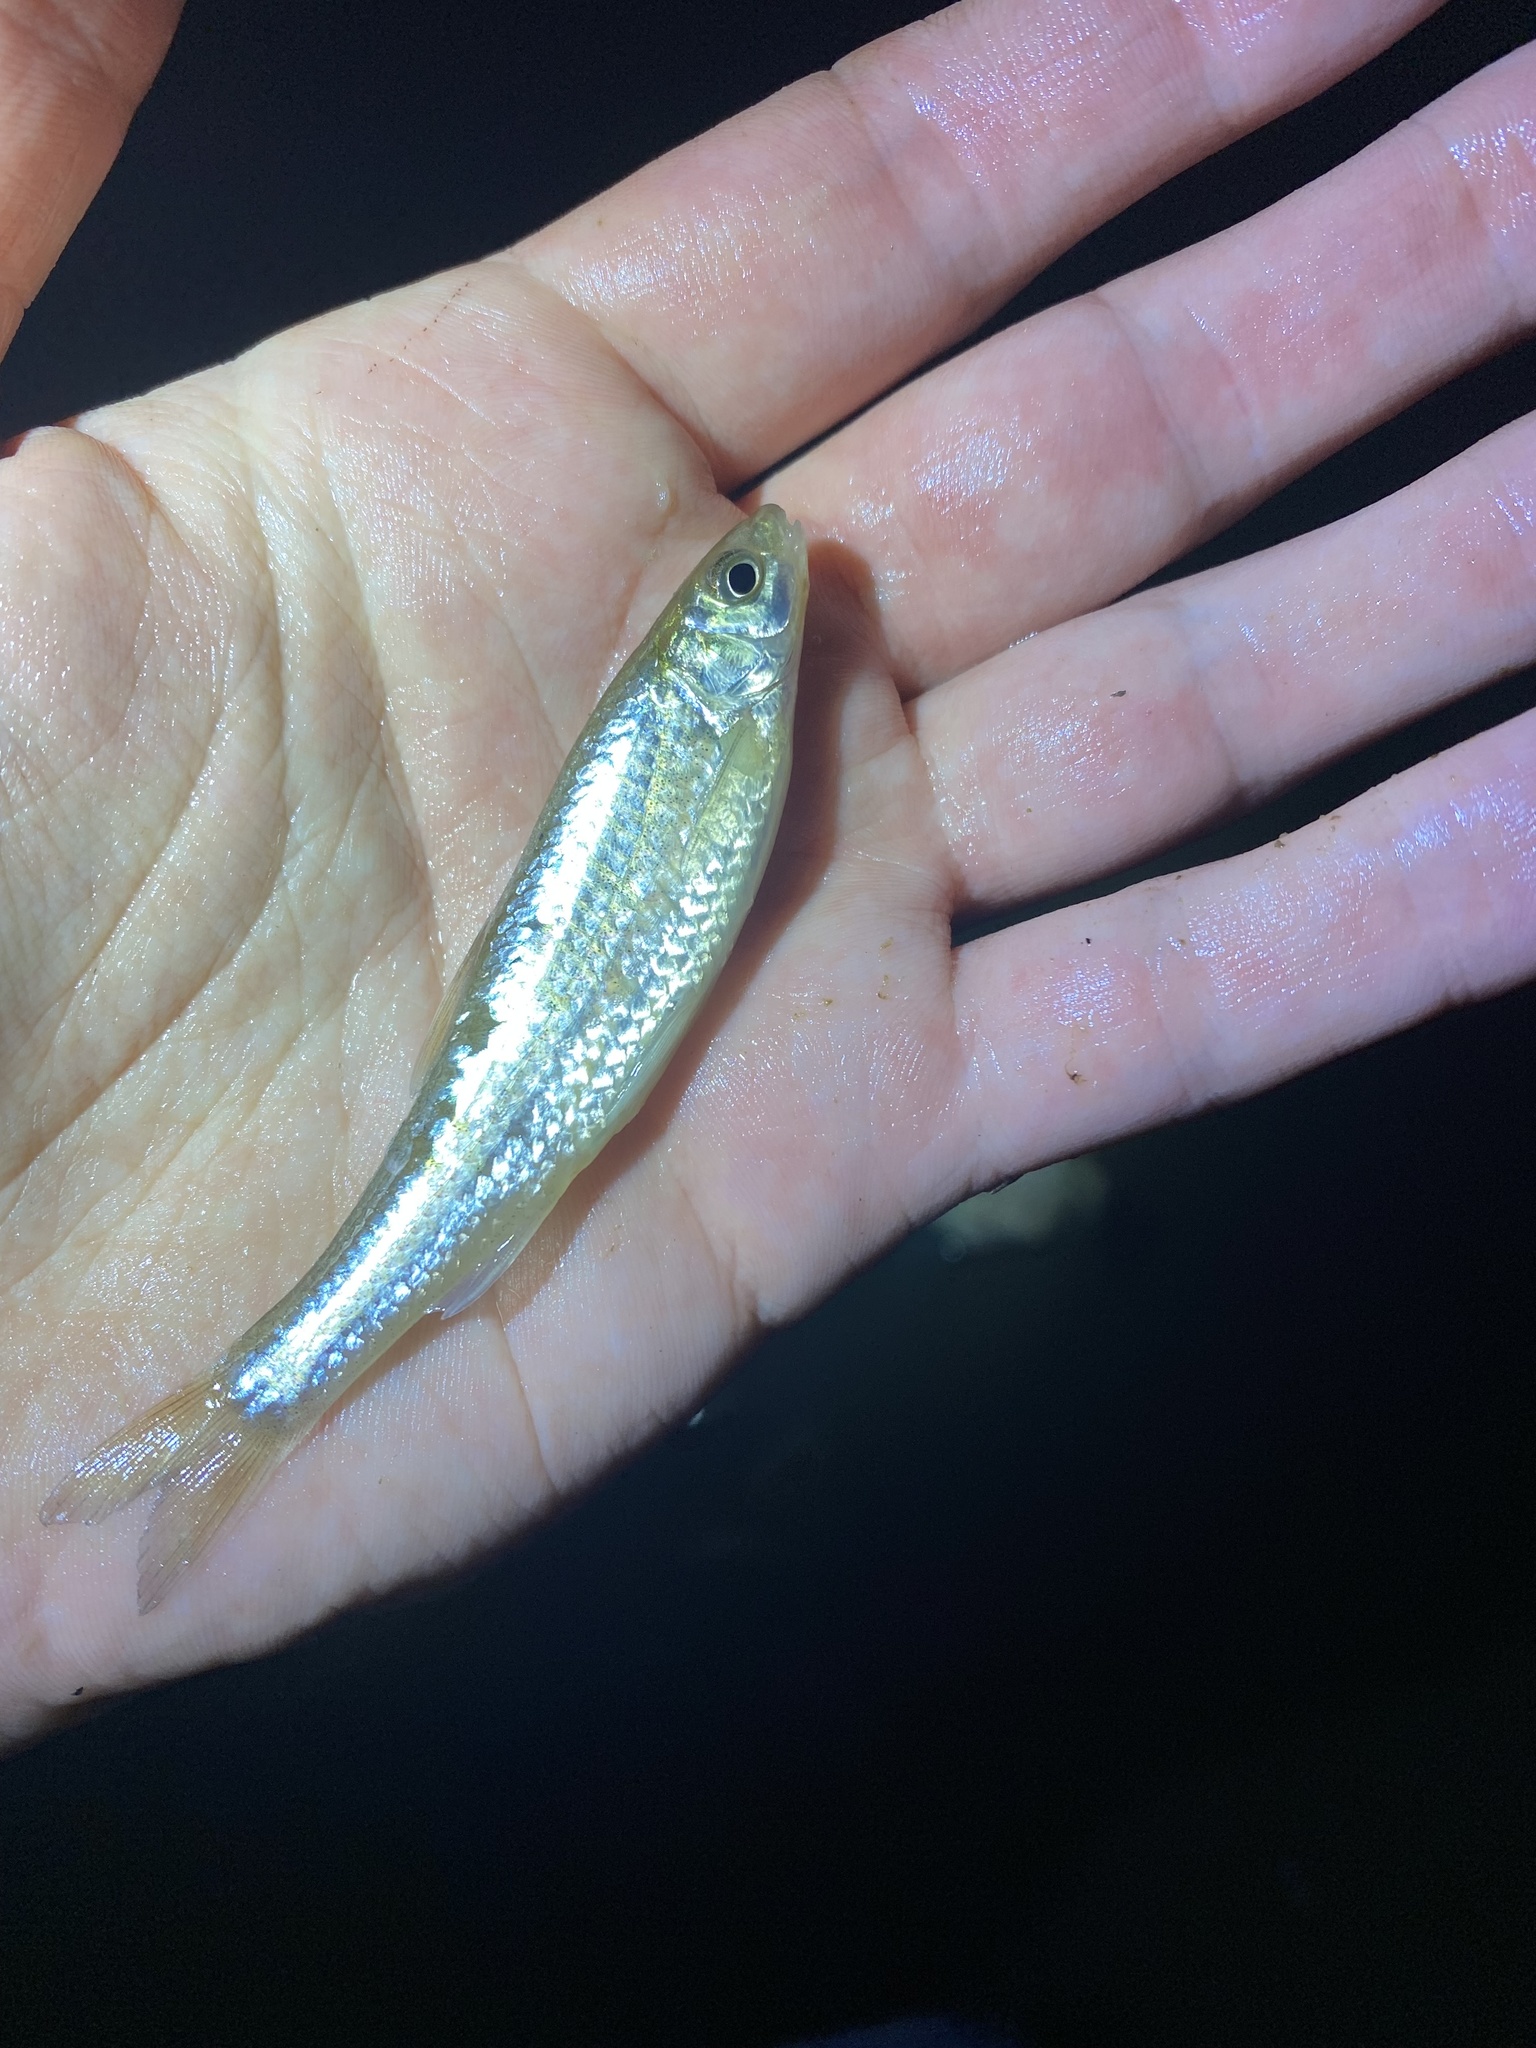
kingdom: Animalia
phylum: Chordata
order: Cypriniformes
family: Cyprinidae
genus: Hybognathus
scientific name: Hybognathus regius
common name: Eastern silvery minnow
